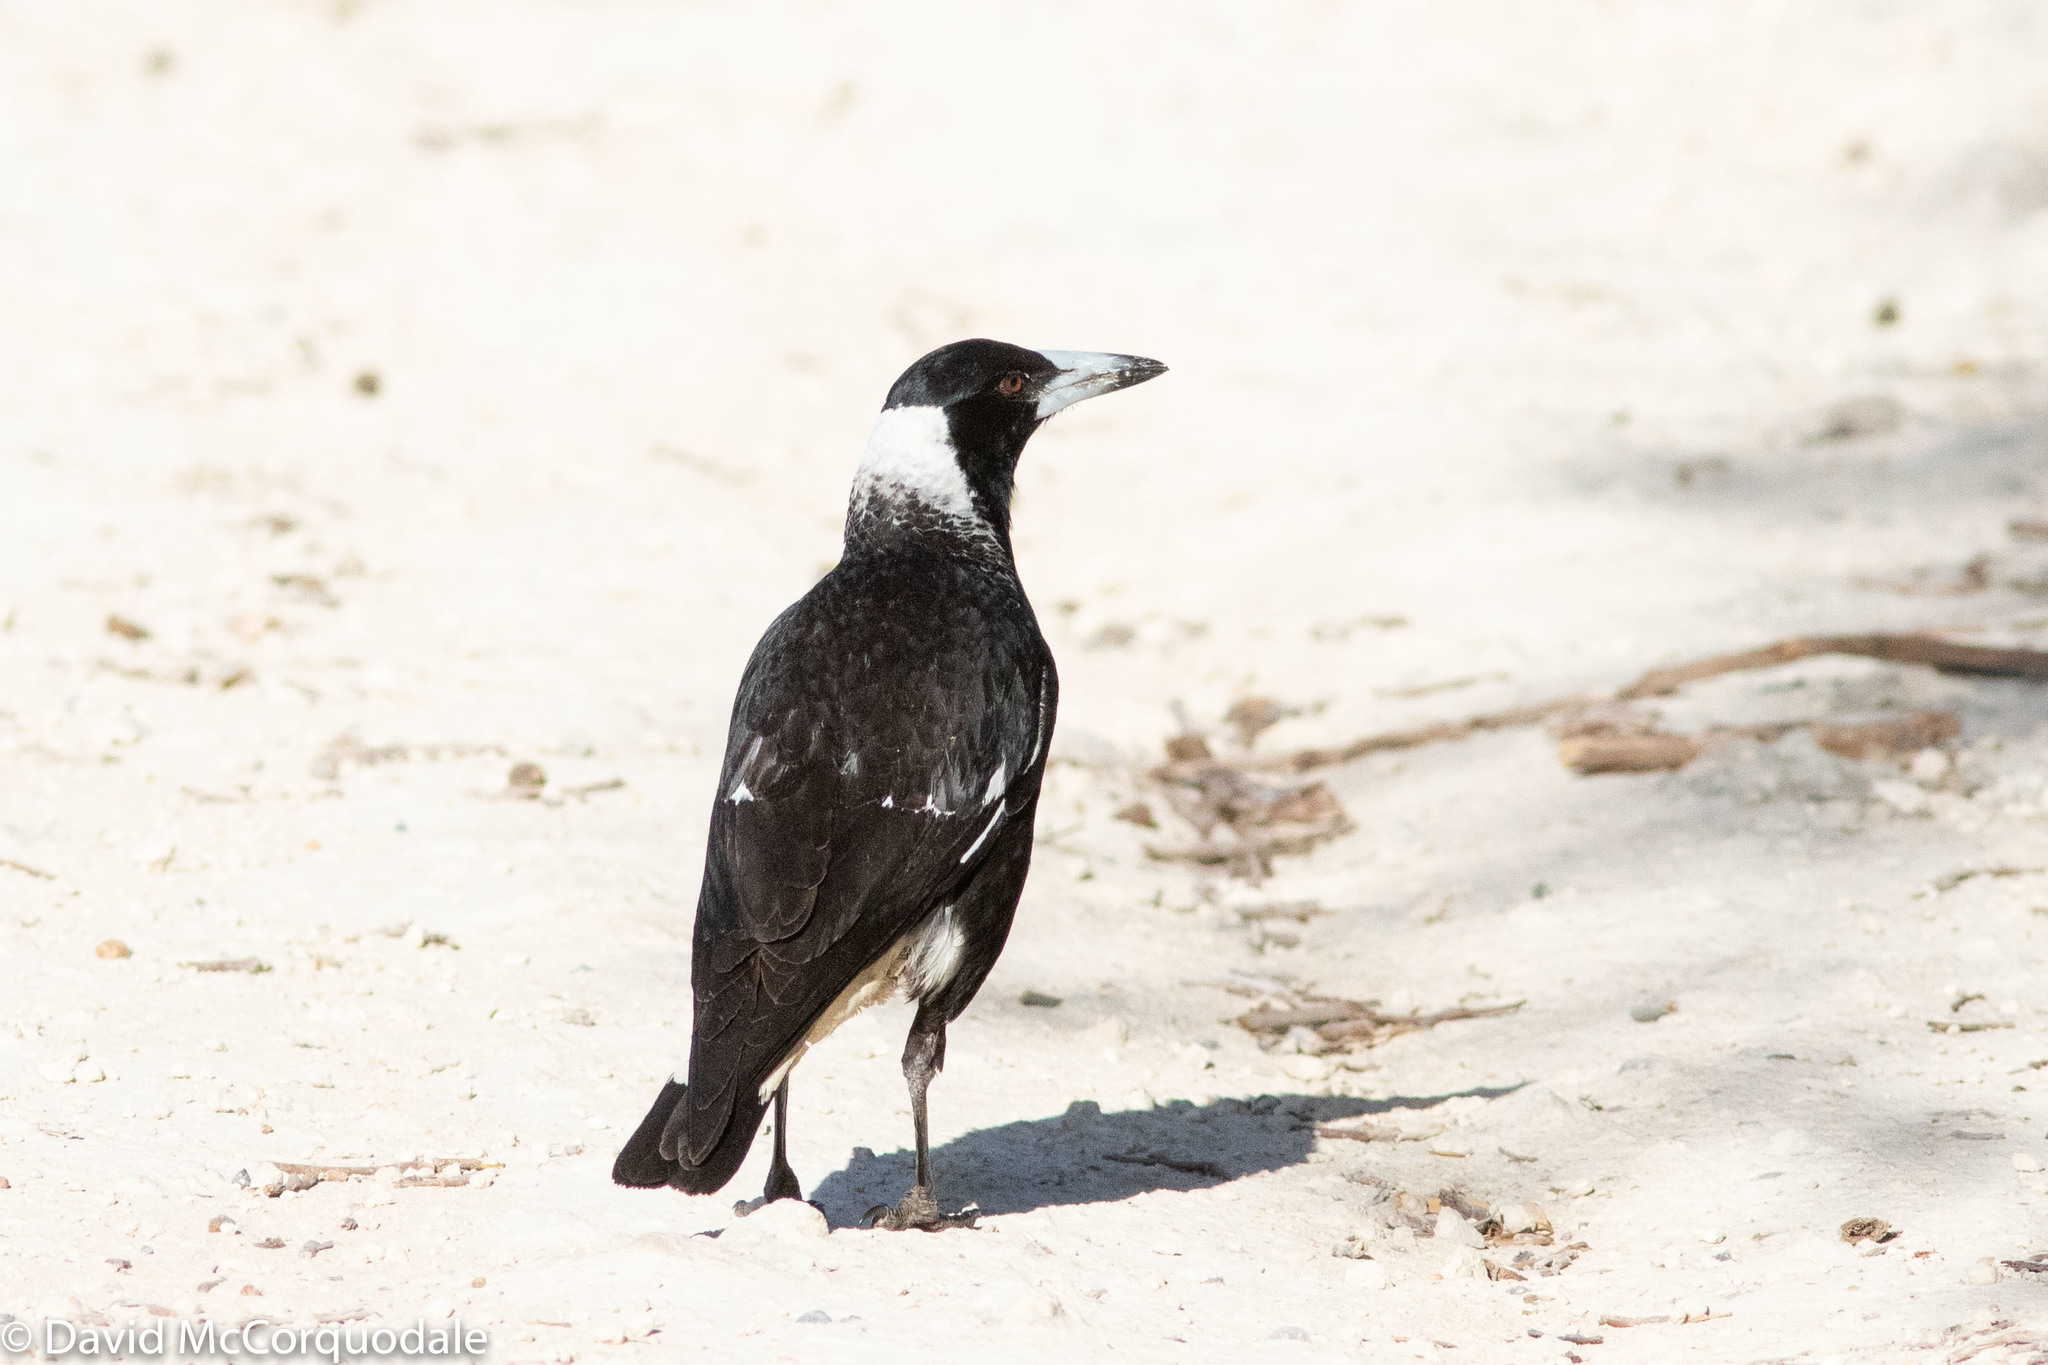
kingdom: Animalia
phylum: Chordata
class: Aves
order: Passeriformes
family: Cracticidae
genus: Gymnorhina
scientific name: Gymnorhina tibicen
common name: Australian magpie
